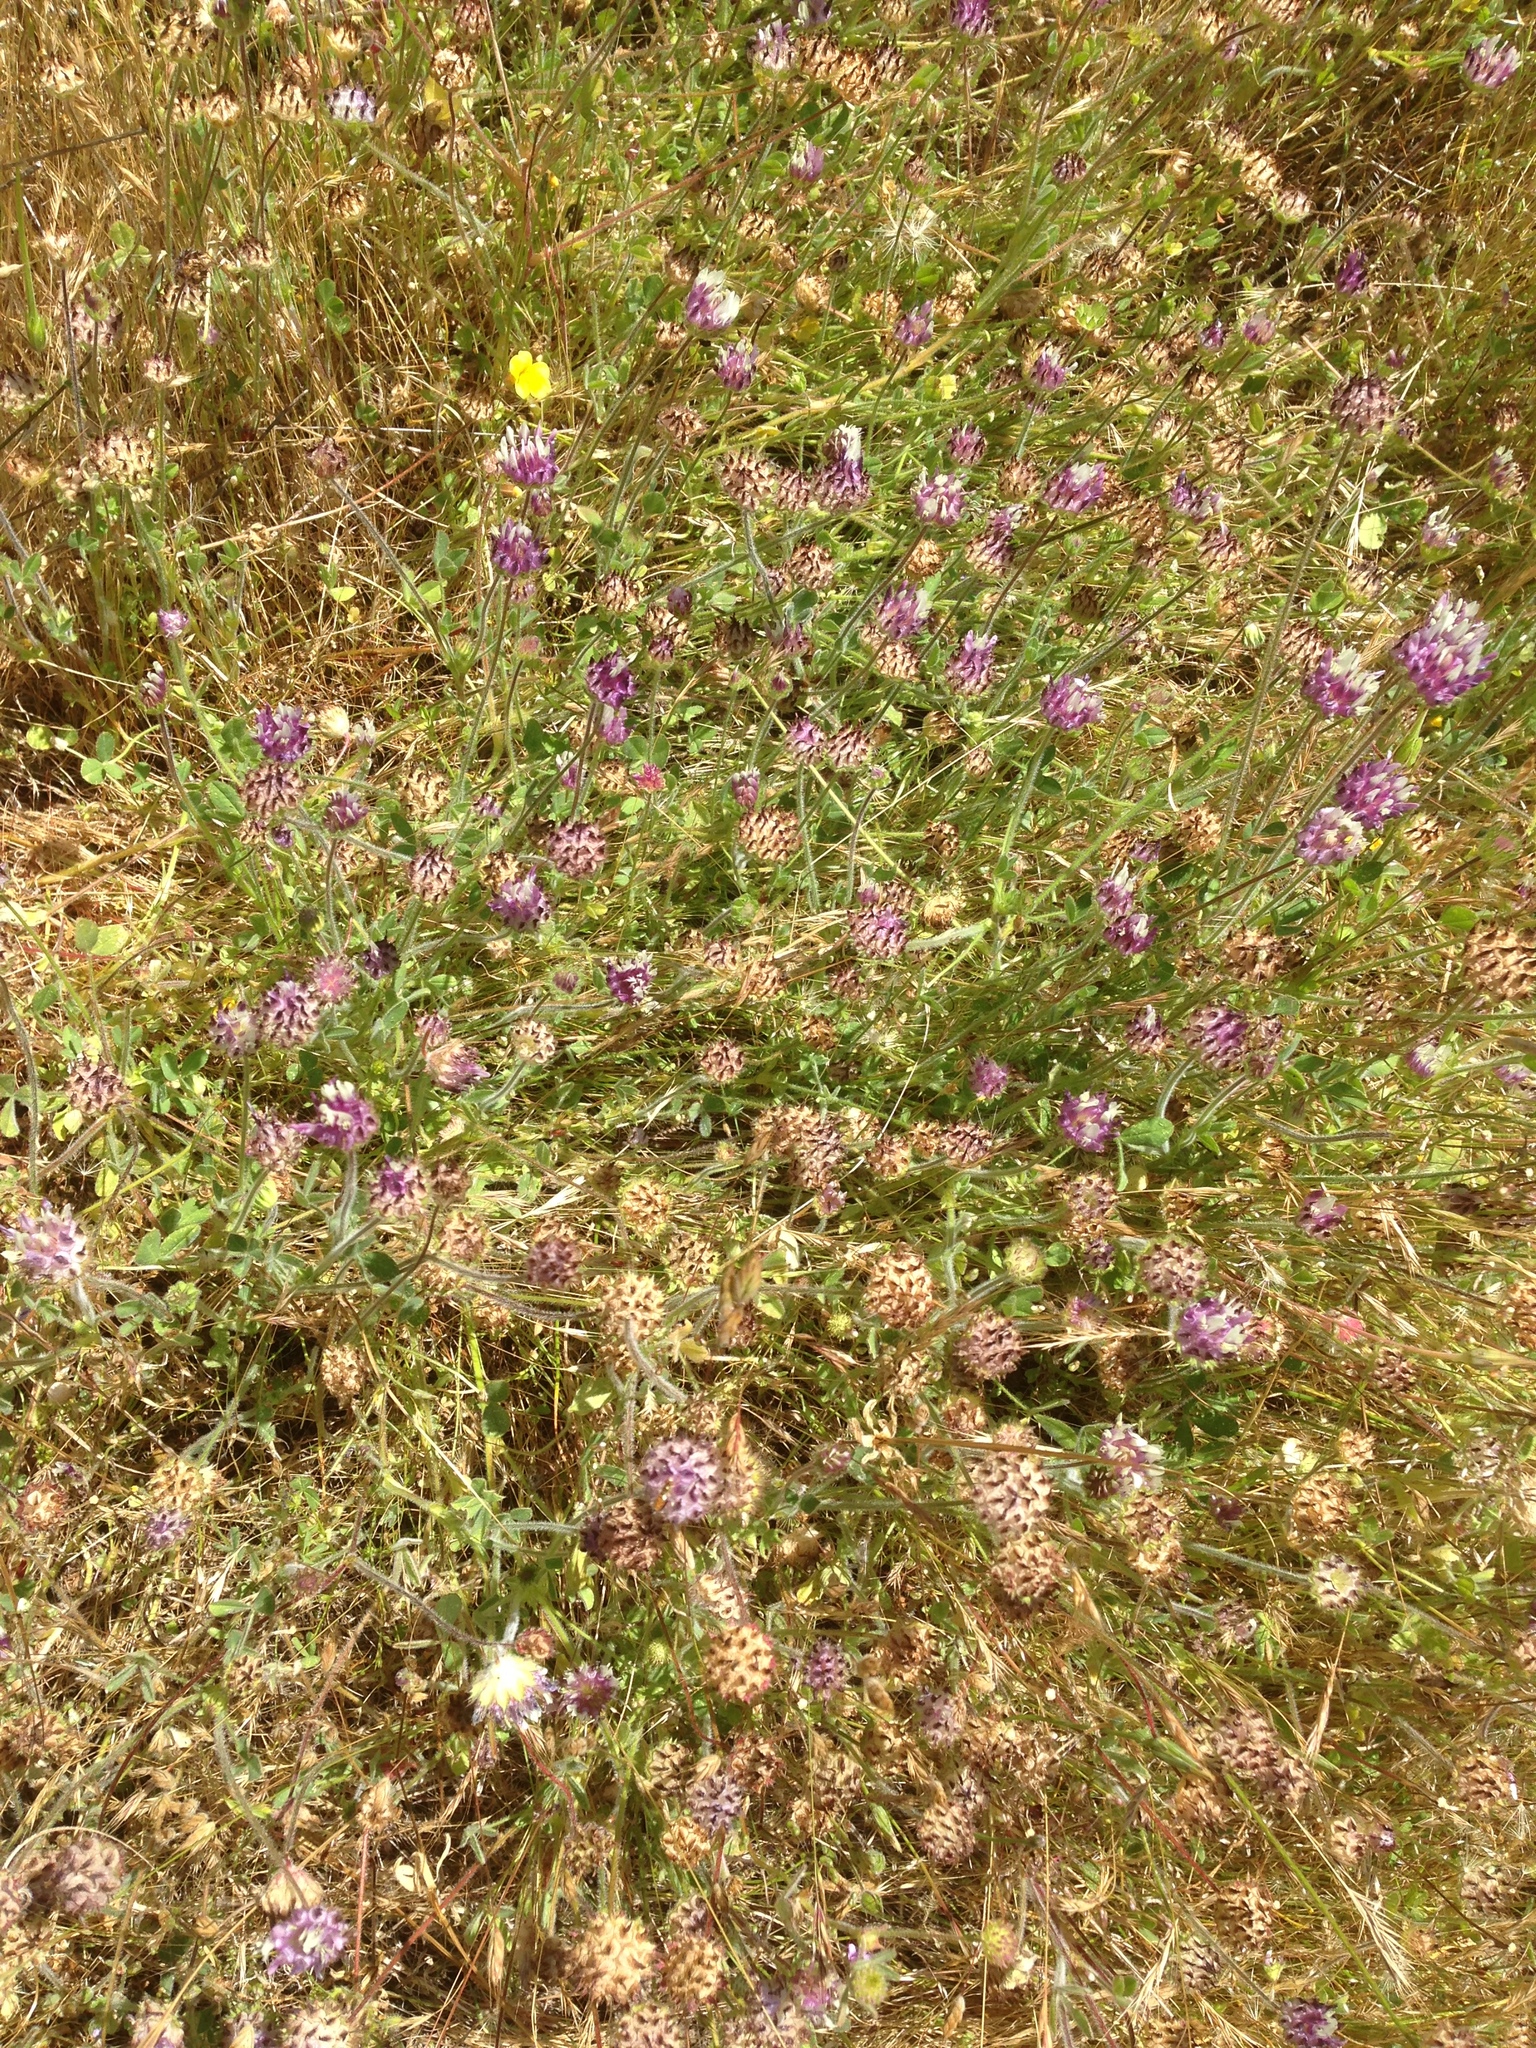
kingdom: Plantae
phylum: Tracheophyta
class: Magnoliopsida
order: Fabales
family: Fabaceae
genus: Trifolium
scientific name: Trifolium barbigerum
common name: Bearded clover
